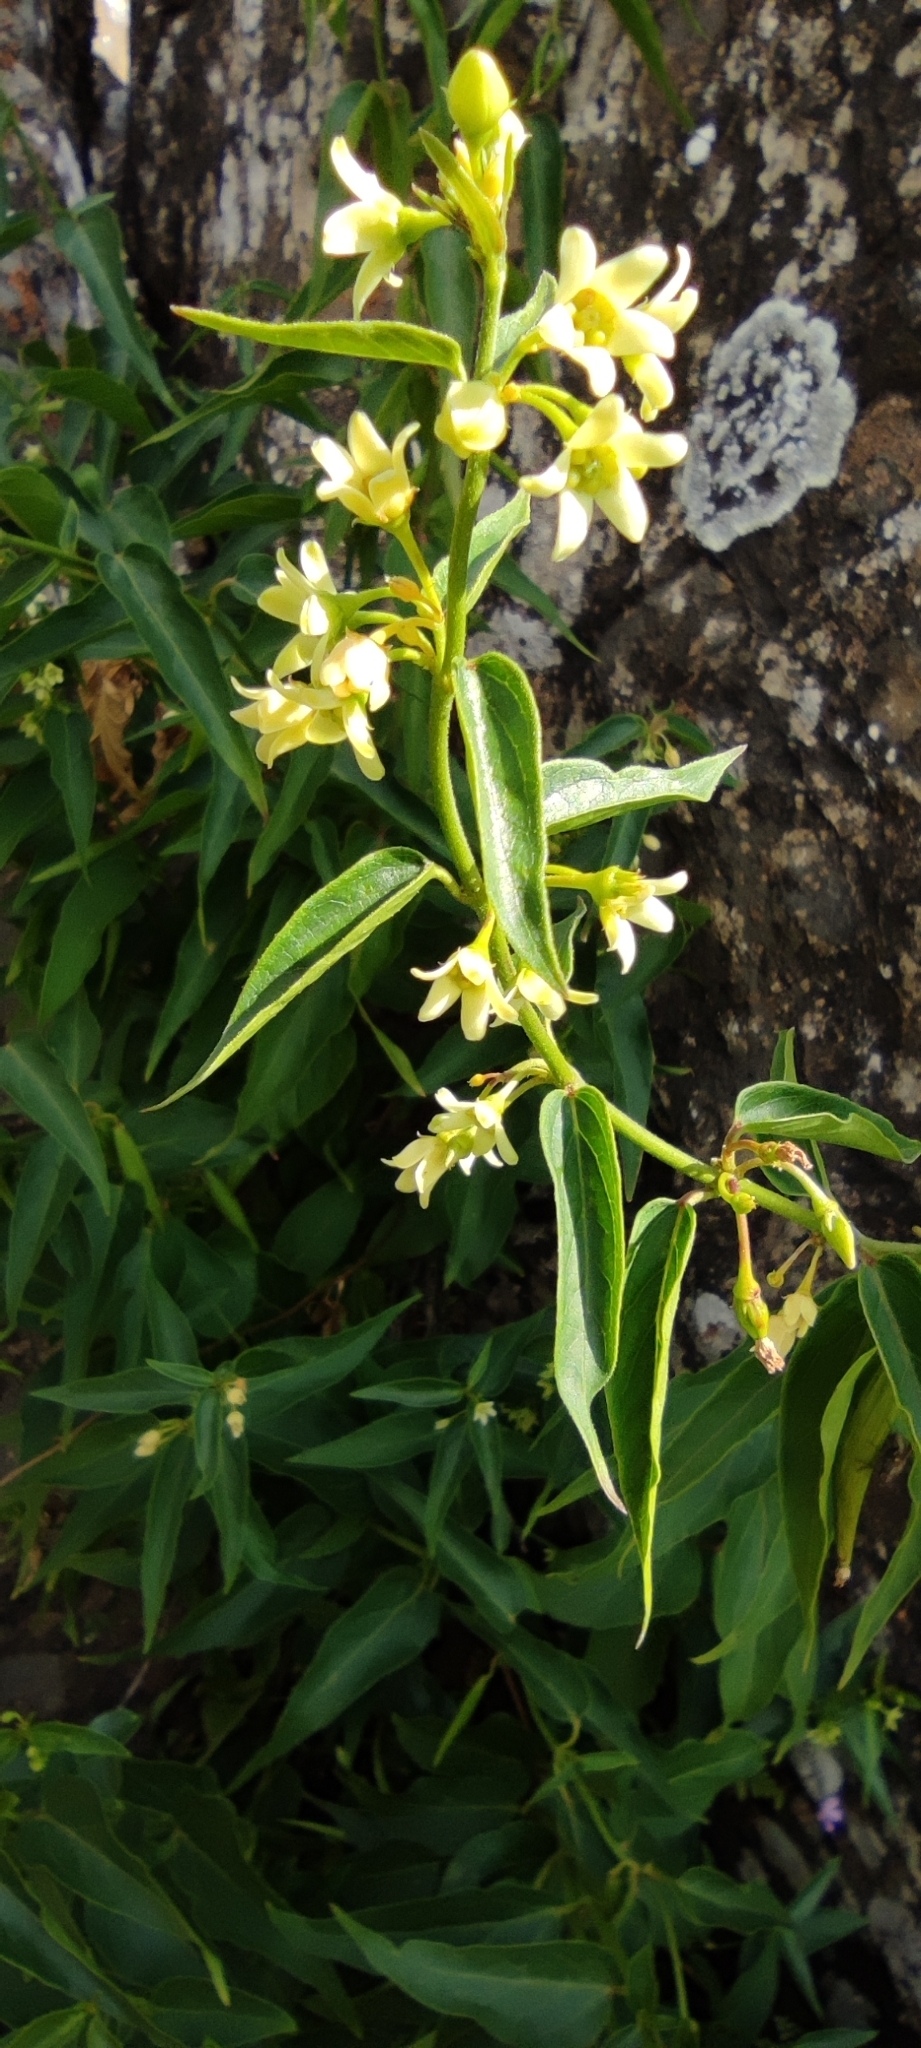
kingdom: Plantae
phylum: Tracheophyta
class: Magnoliopsida
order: Gentianales
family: Apocynaceae
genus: Vincetoxicum
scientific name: Vincetoxicum hirundinaria
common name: White swallowwort
